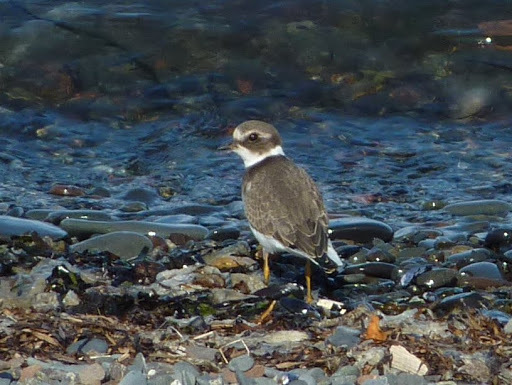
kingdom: Animalia
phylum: Chordata
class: Aves
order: Charadriiformes
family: Charadriidae
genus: Charadrius
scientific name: Charadrius semipalmatus
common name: Semipalmated plover
